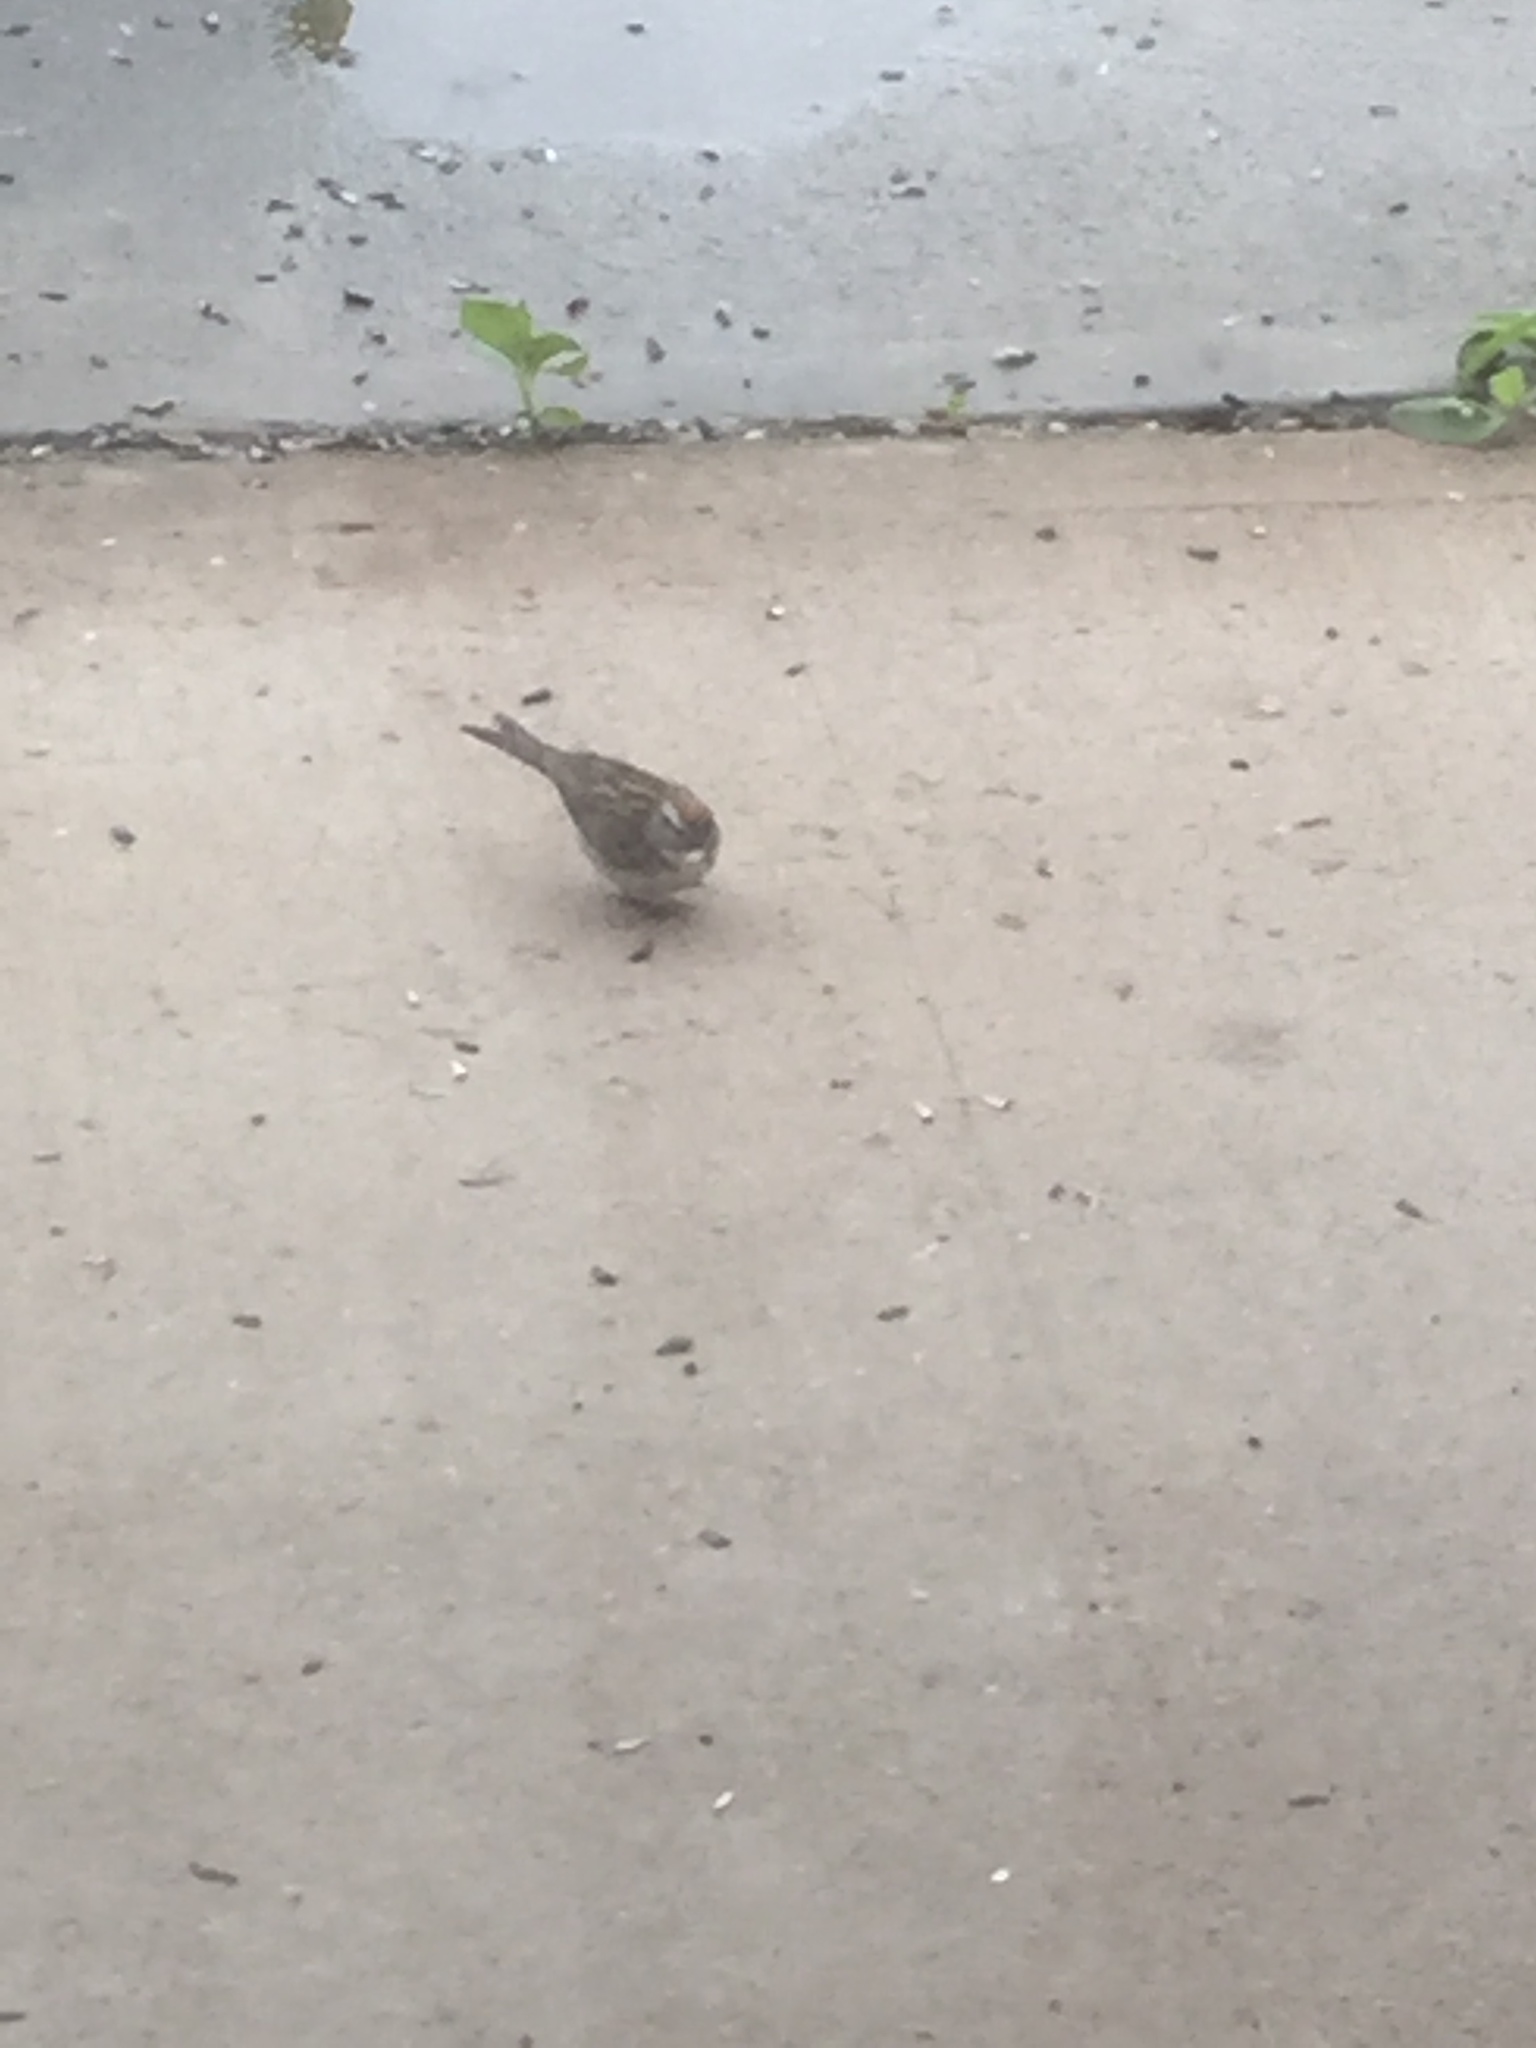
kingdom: Animalia
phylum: Chordata
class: Aves
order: Passeriformes
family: Passerellidae
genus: Spizella
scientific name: Spizella passerina
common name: Chipping sparrow
